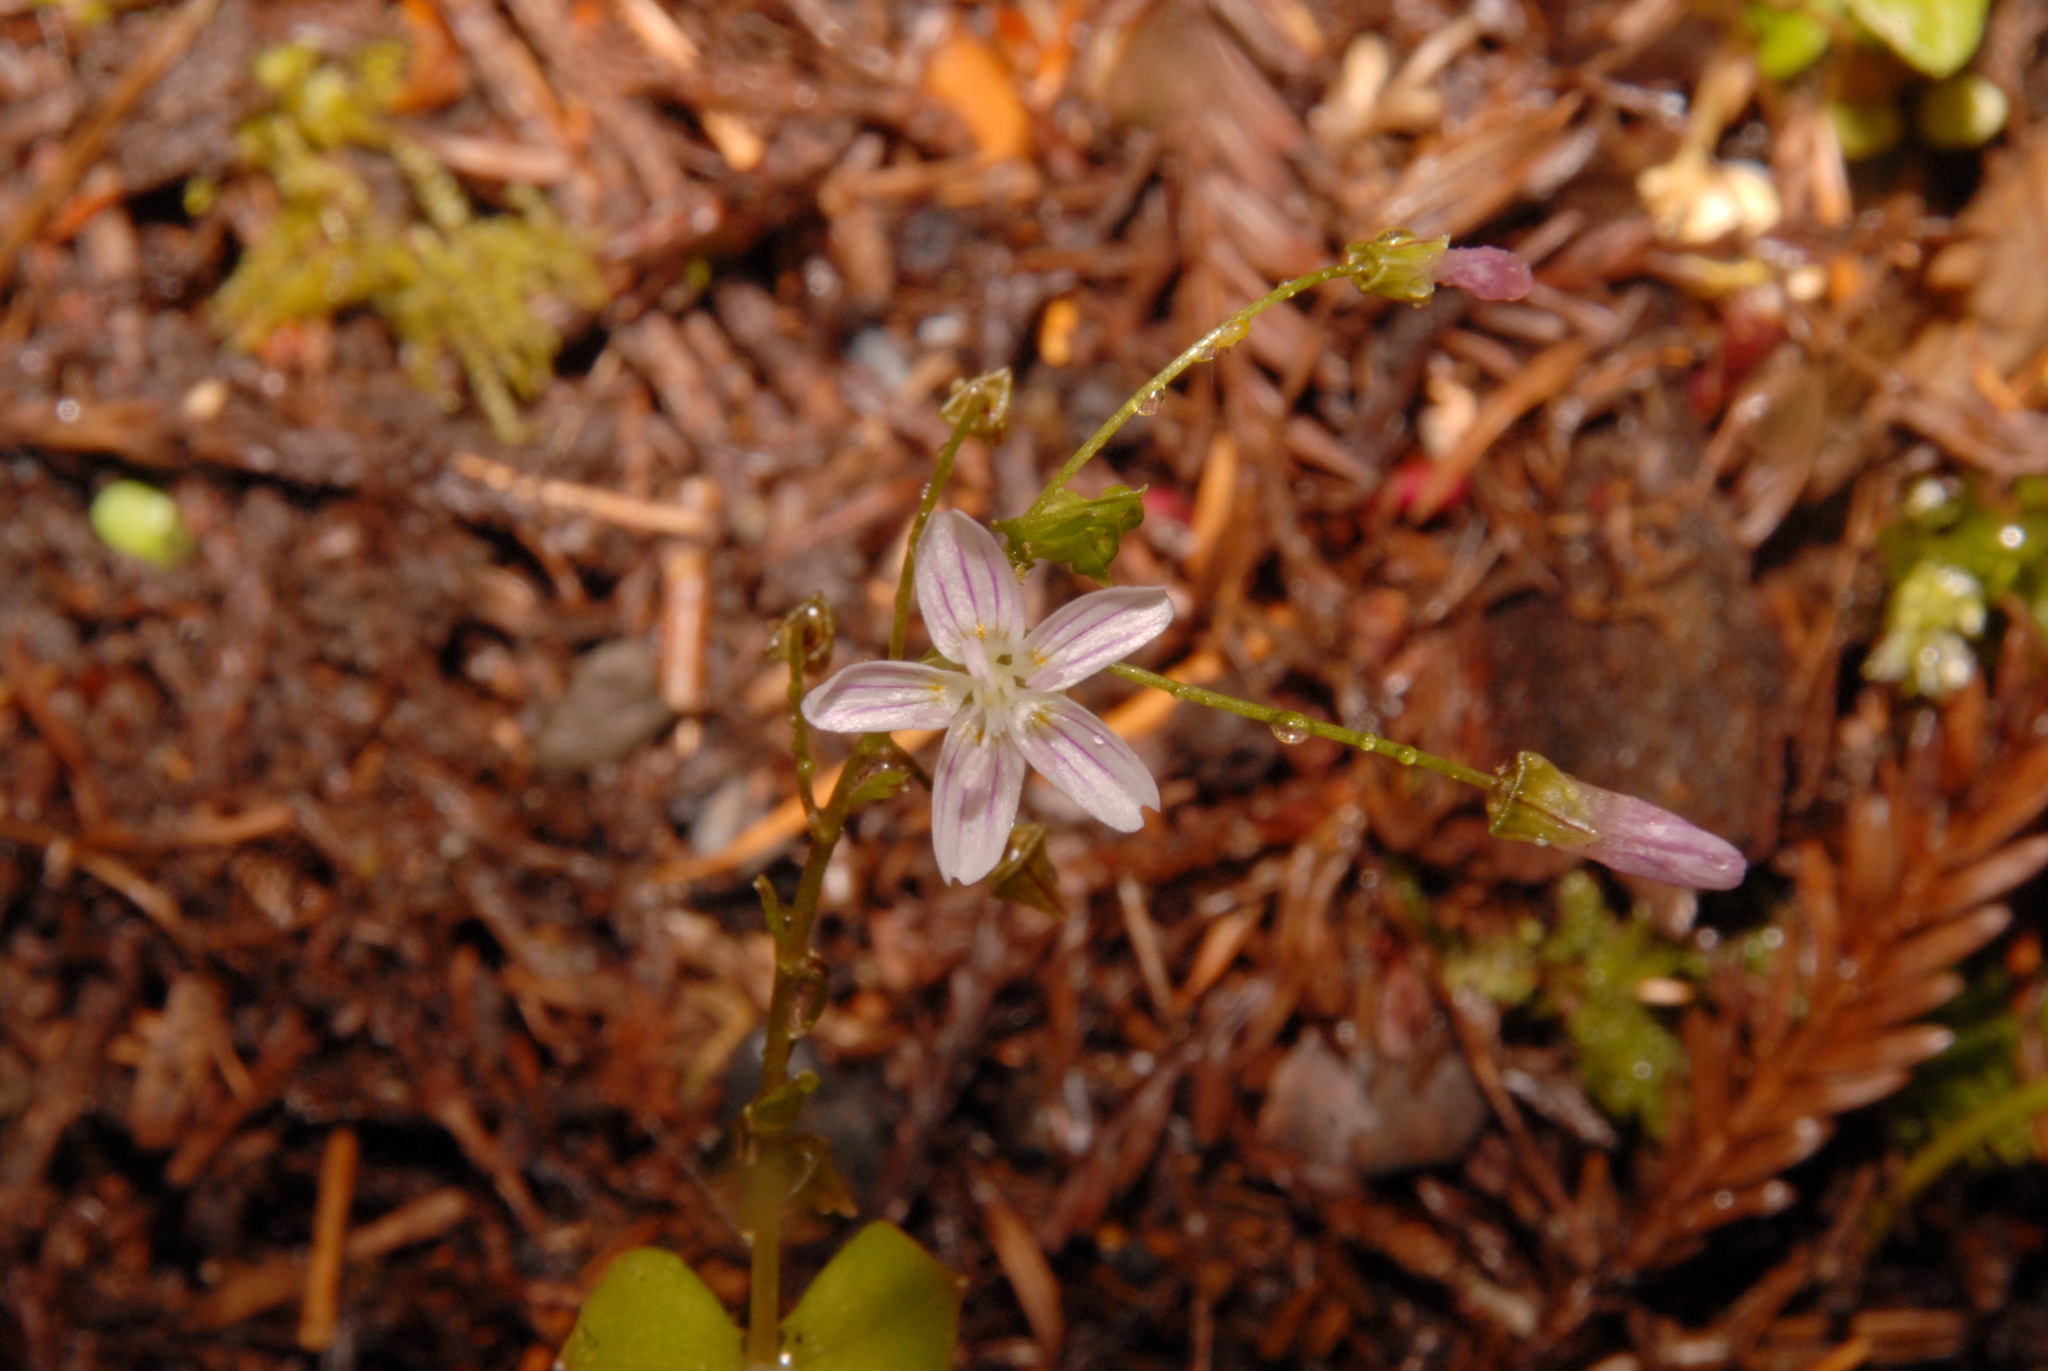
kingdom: Plantae
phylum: Tracheophyta
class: Magnoliopsida
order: Caryophyllales
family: Montiaceae
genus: Claytonia
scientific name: Claytonia sibirica
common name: Pink purslane
